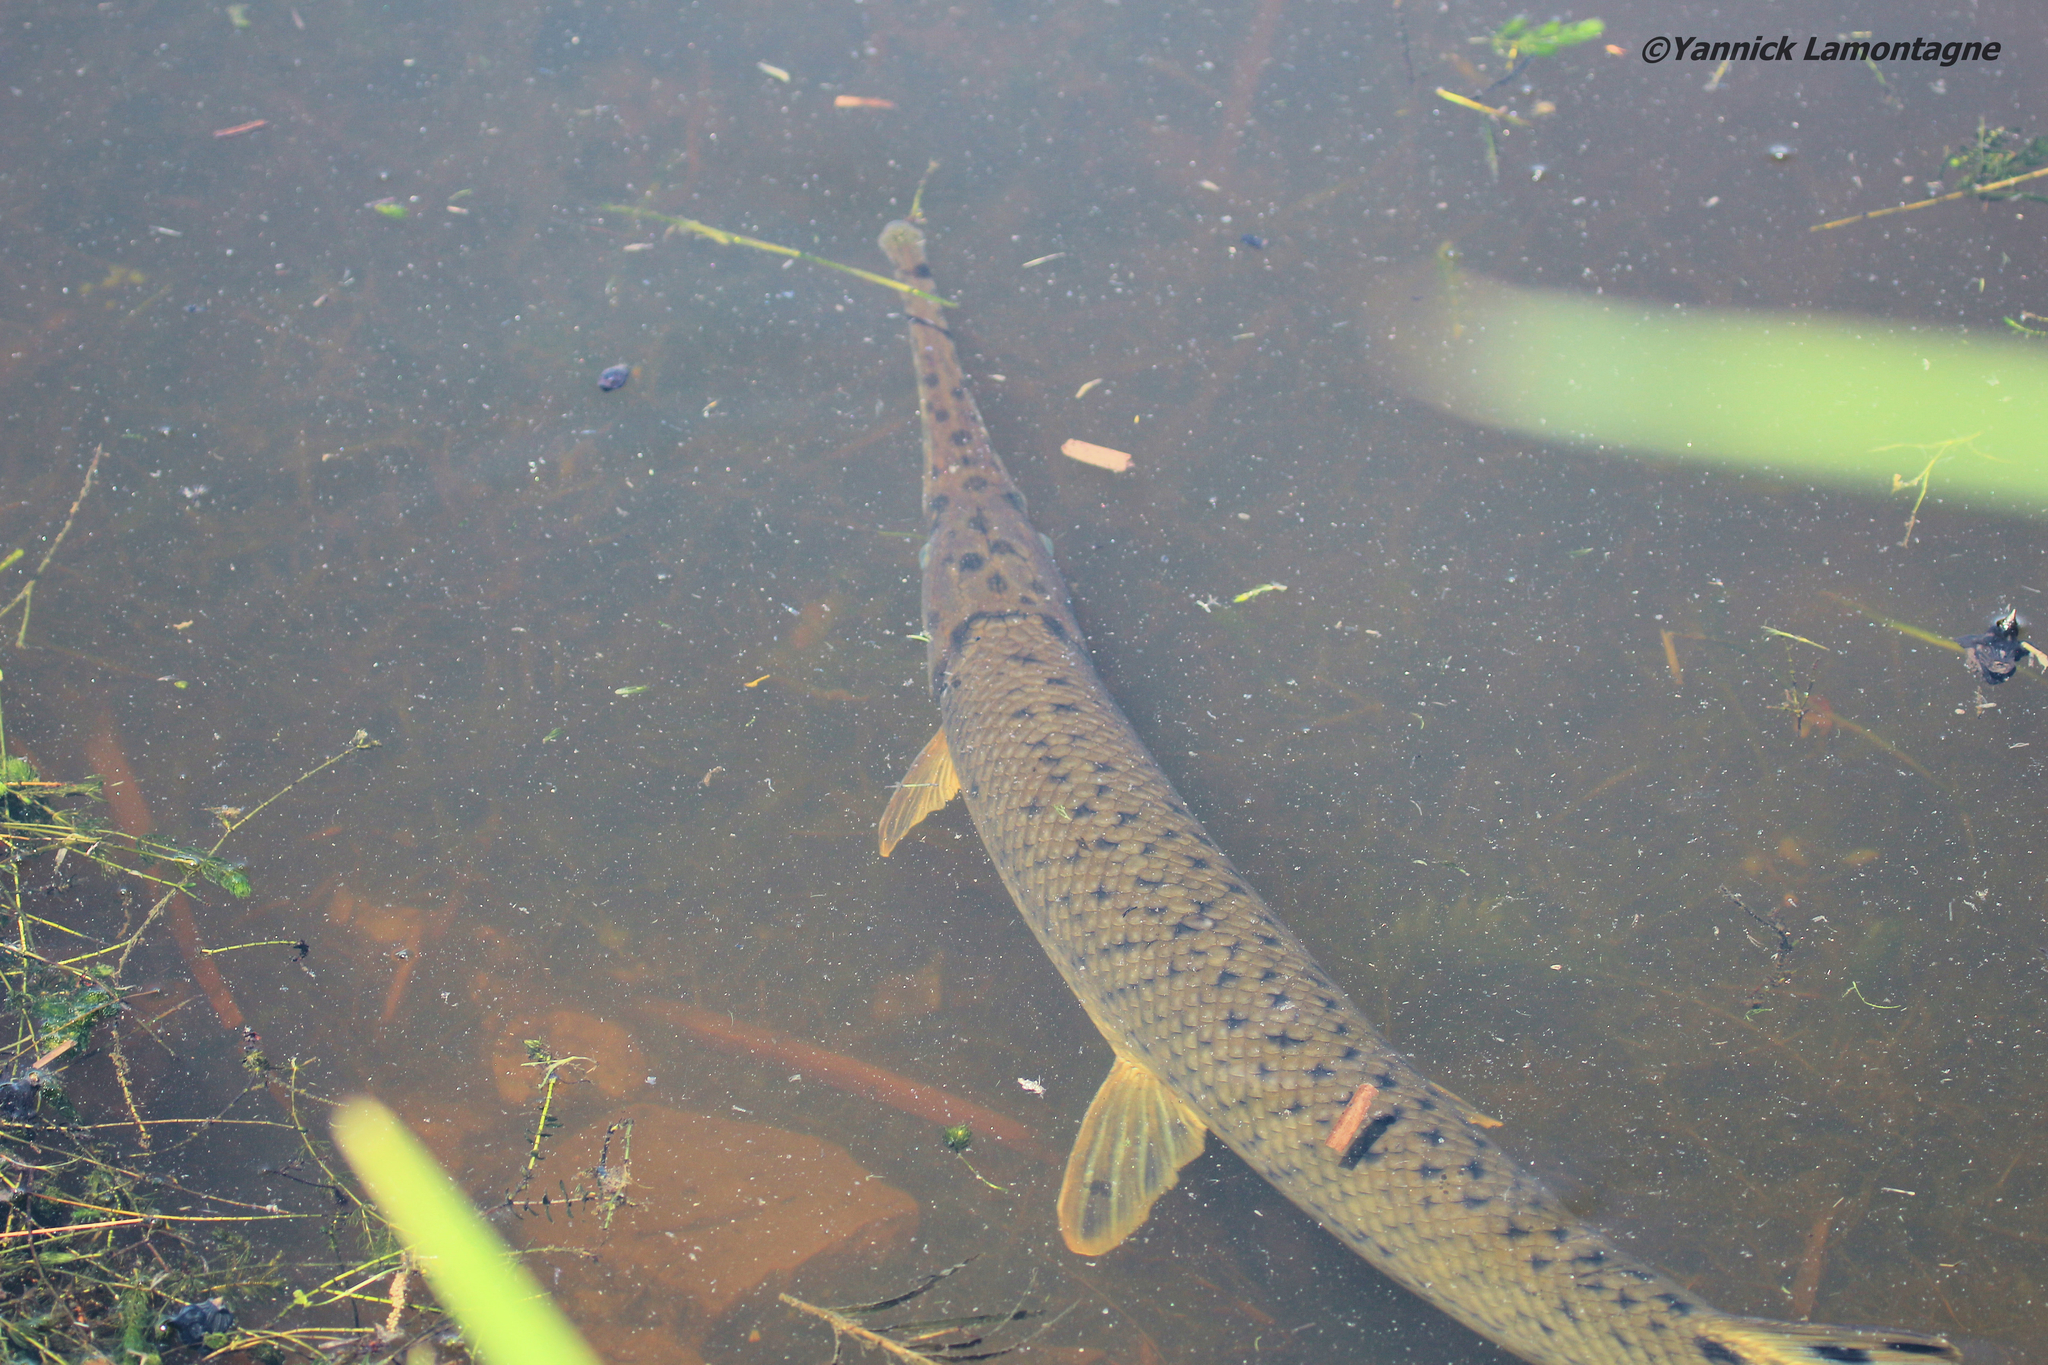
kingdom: Animalia
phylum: Chordata
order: Lepisosteiformes
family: Lepisosteidae
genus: Lepisosteus
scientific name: Lepisosteus osseus
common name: Longnose gar
